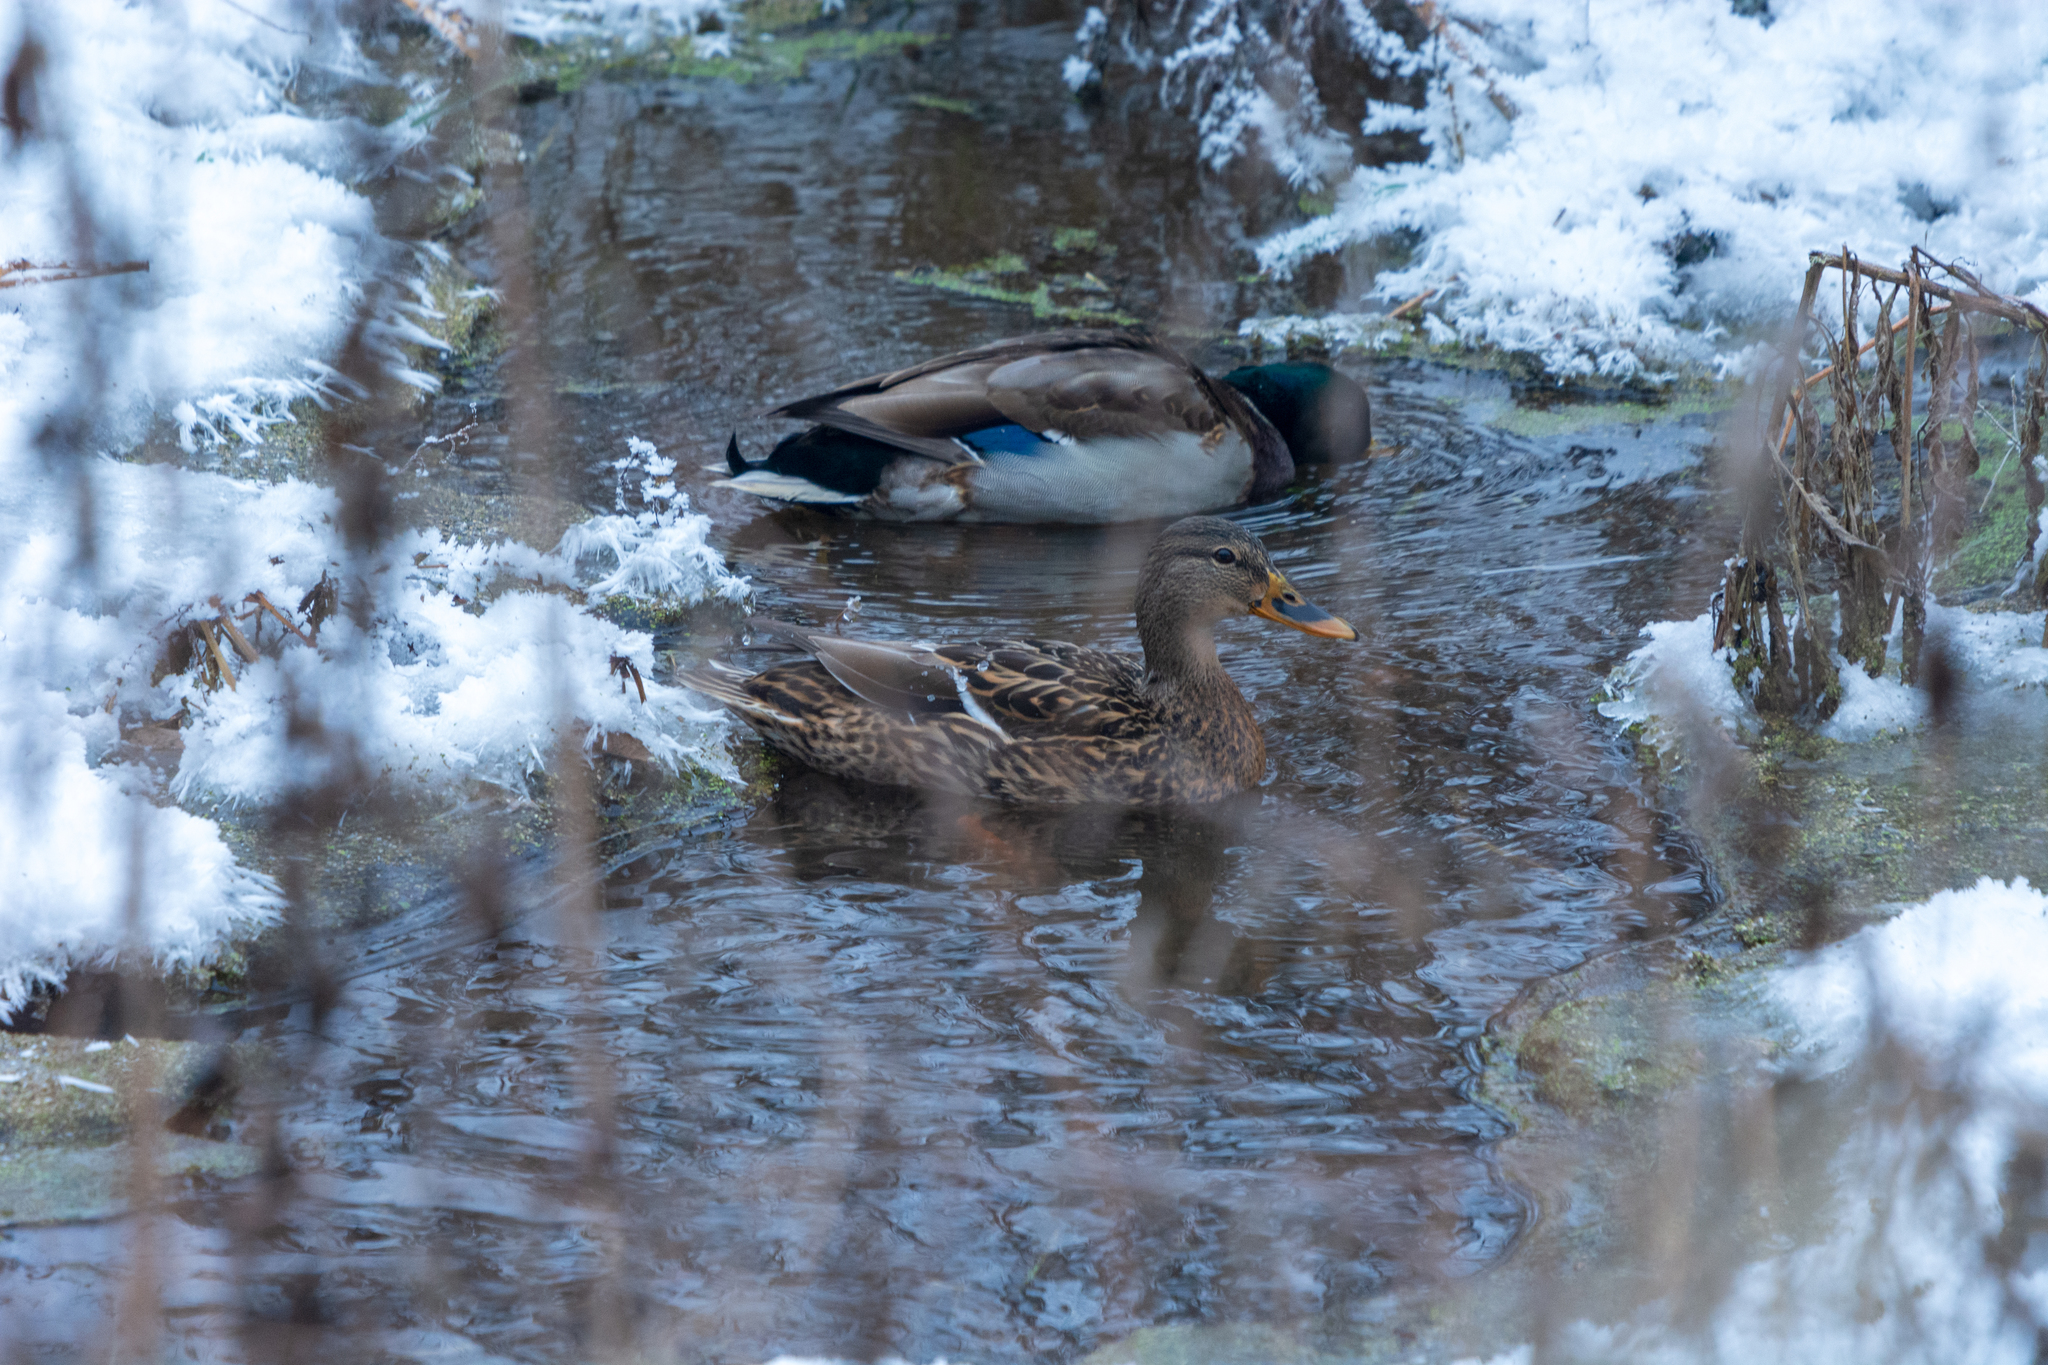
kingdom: Animalia
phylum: Chordata
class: Aves
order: Anseriformes
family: Anatidae
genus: Anas
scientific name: Anas platyrhynchos
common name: Mallard
